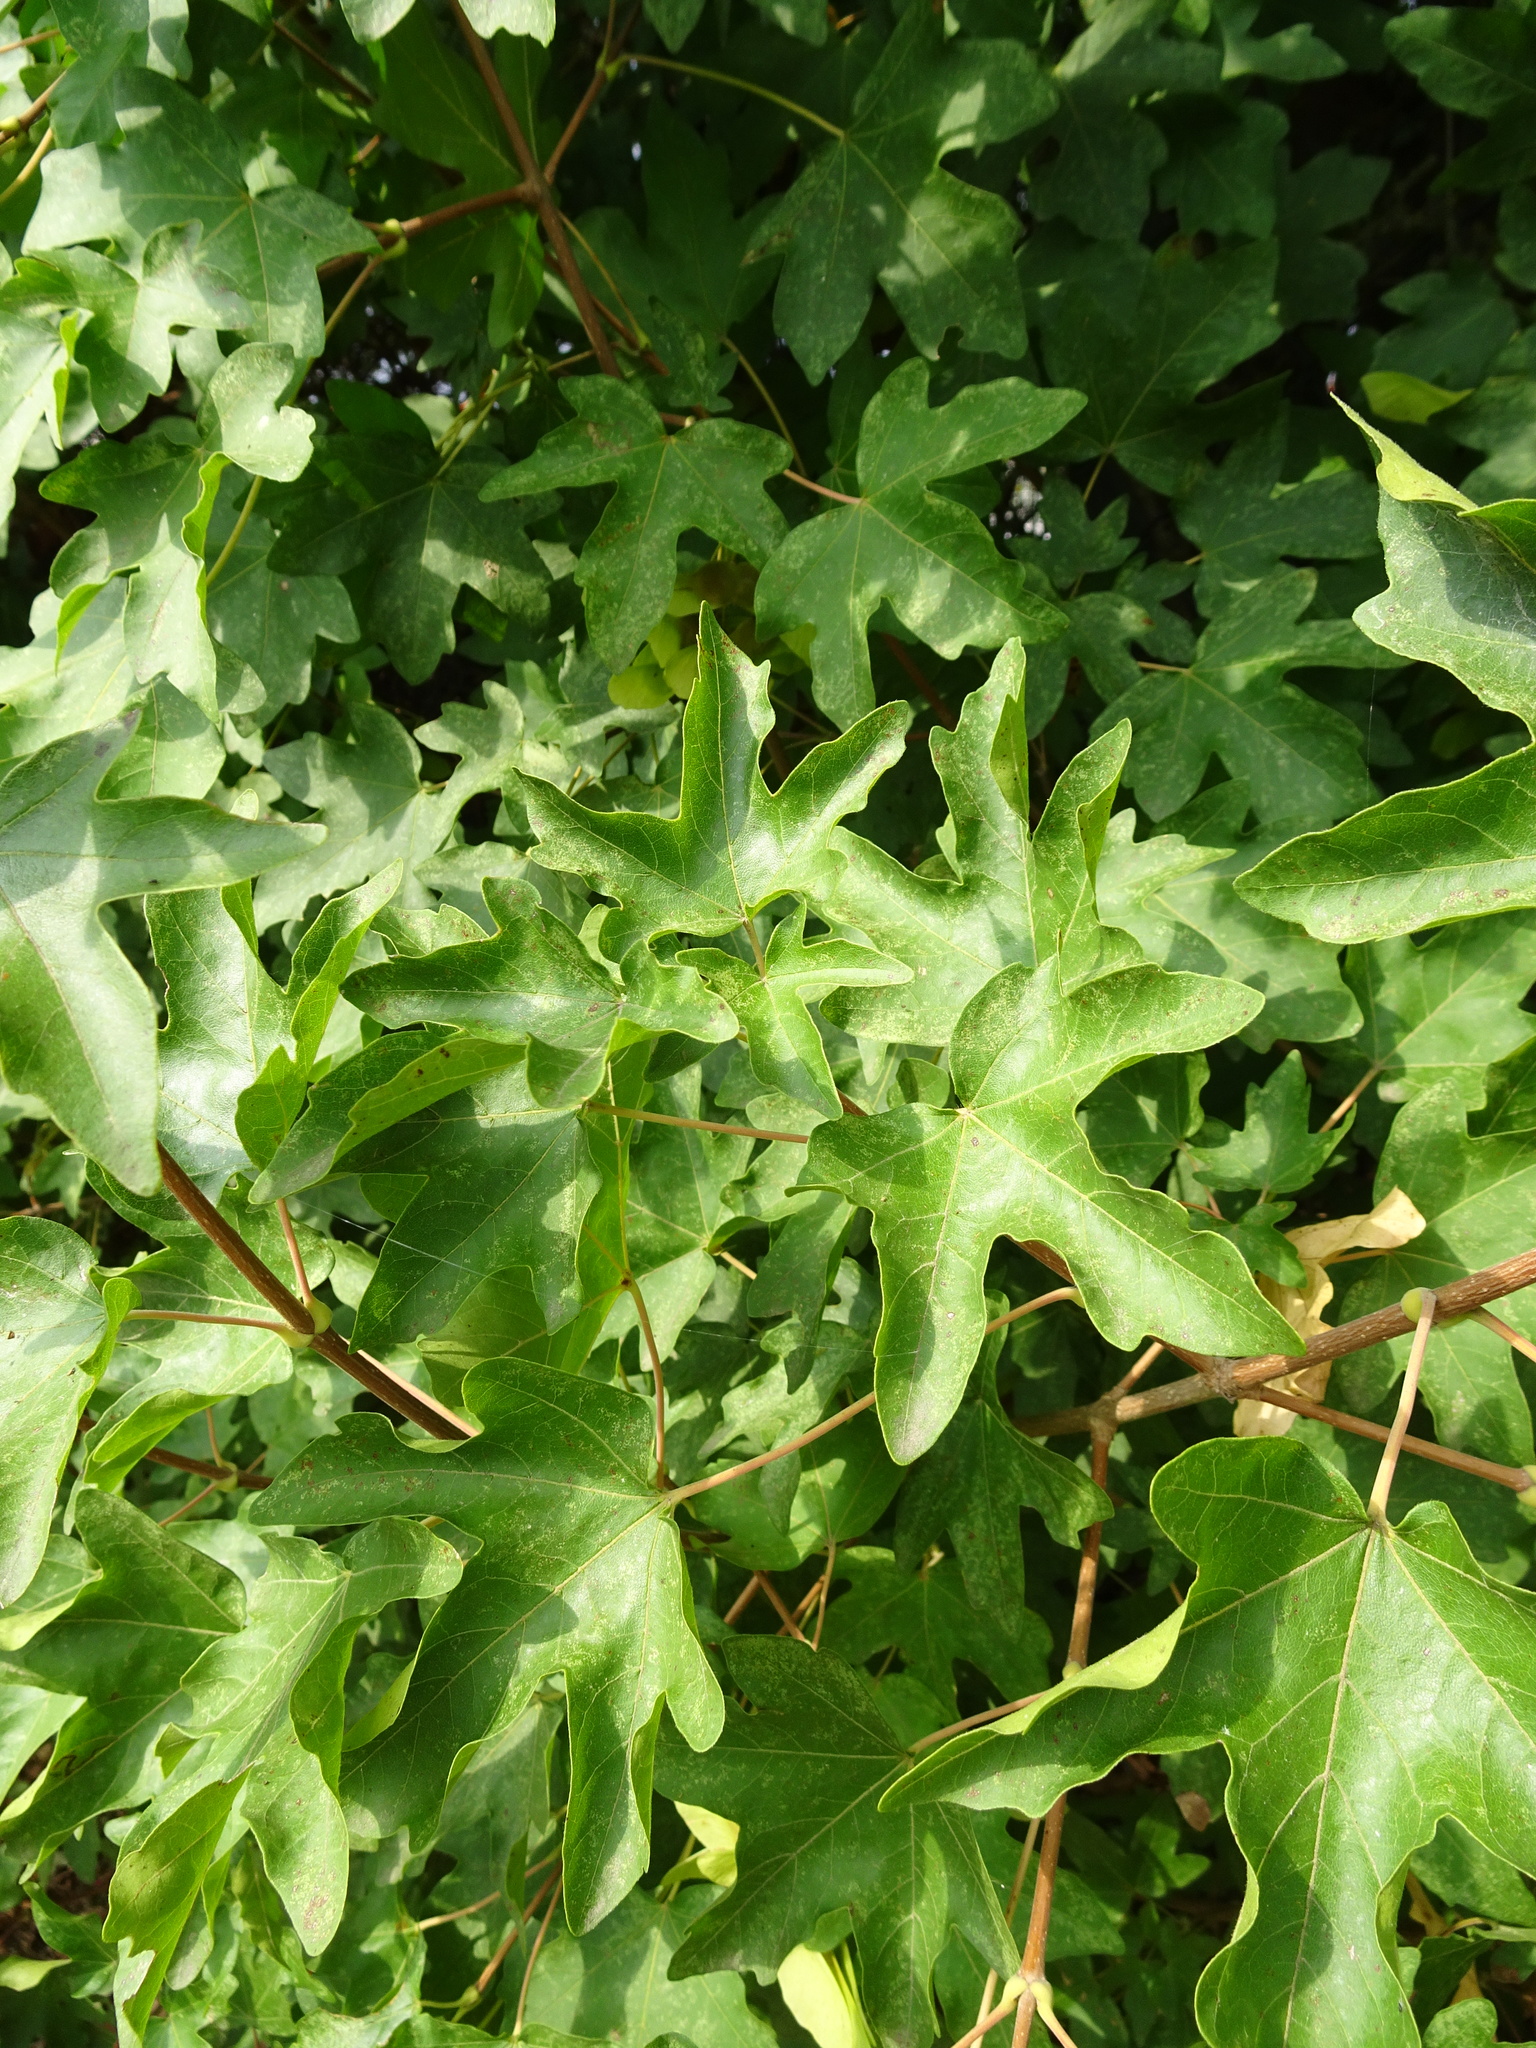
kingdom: Plantae
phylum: Tracheophyta
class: Magnoliopsida
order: Sapindales
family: Sapindaceae
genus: Acer
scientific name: Acer campestre
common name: Field maple
